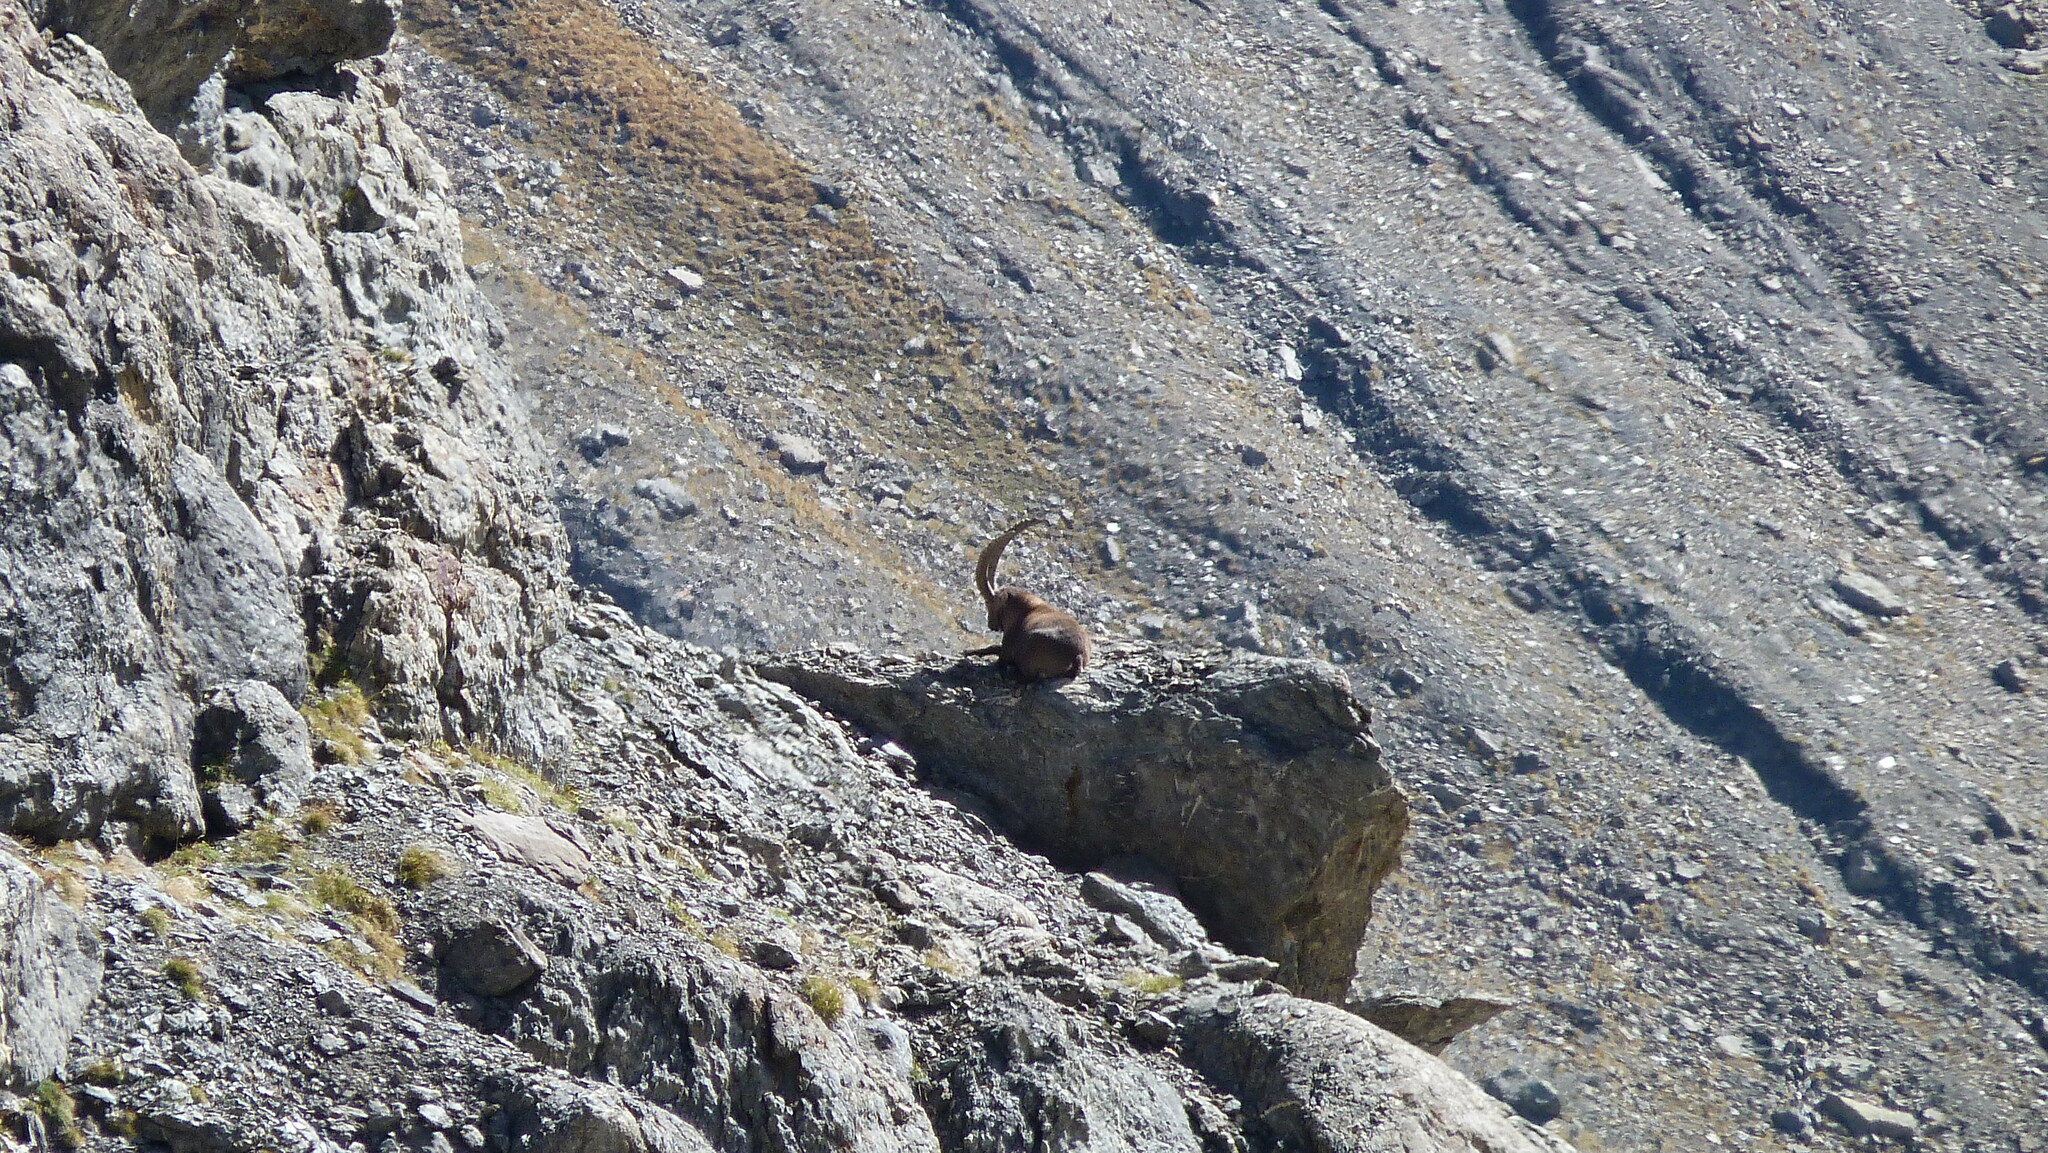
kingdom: Animalia
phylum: Chordata
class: Mammalia
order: Artiodactyla
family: Bovidae
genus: Capra
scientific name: Capra ibex
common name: Alpine ibex
